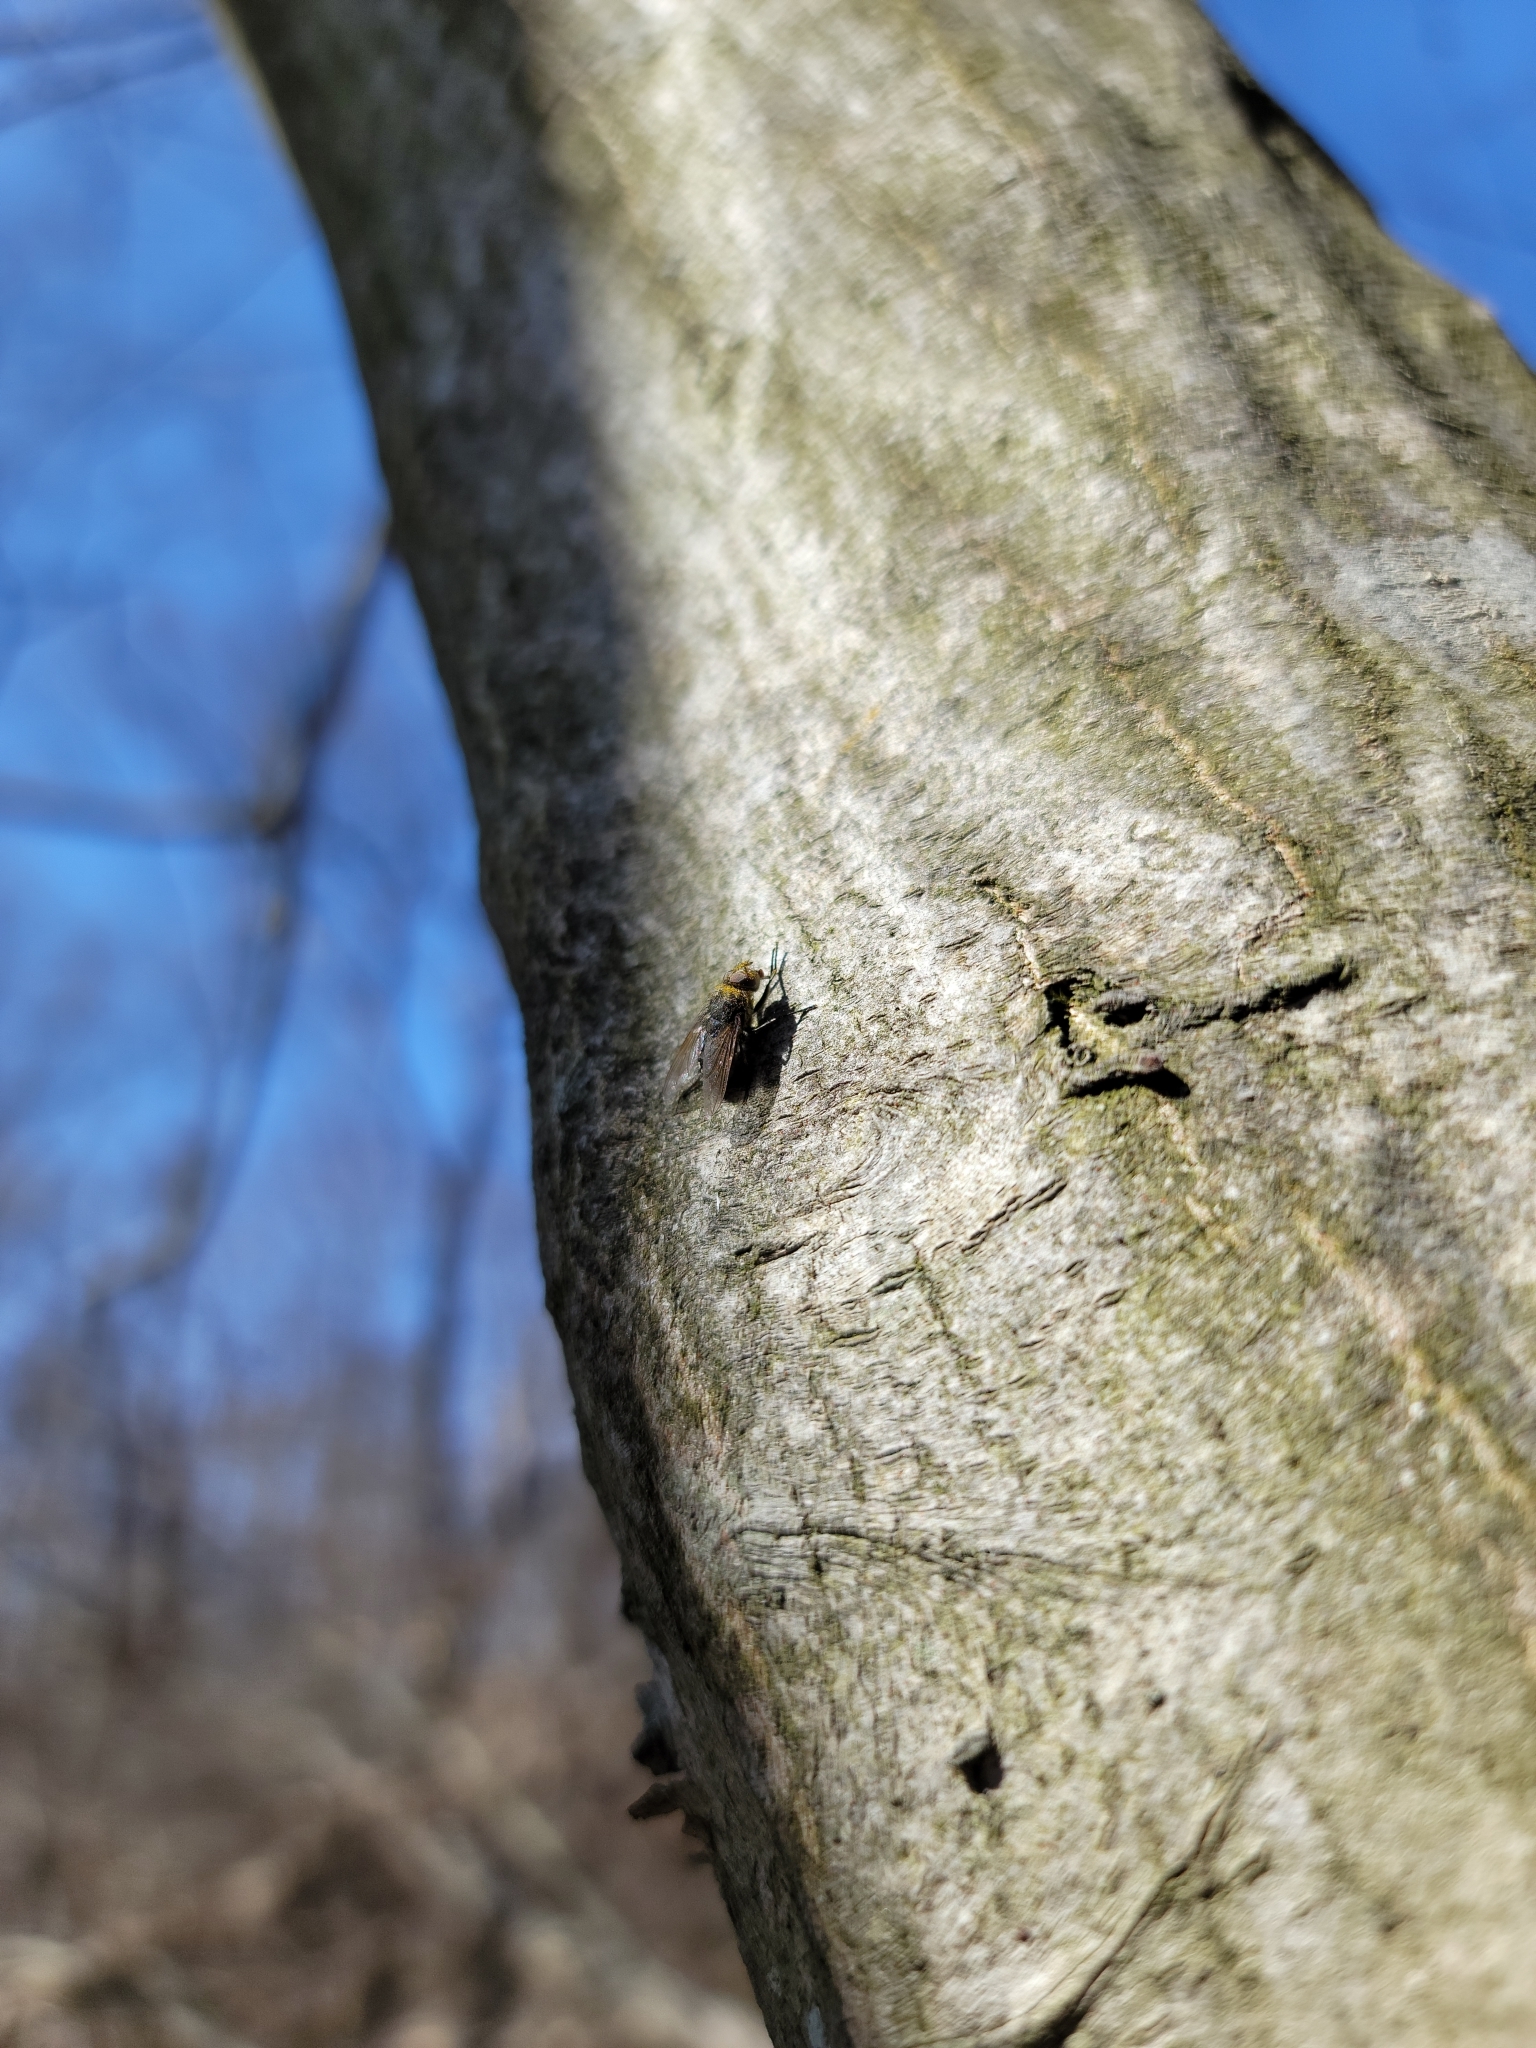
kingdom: Animalia
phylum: Arthropoda
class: Insecta
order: Diptera
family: Polleniidae
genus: Pollenia
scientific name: Pollenia
